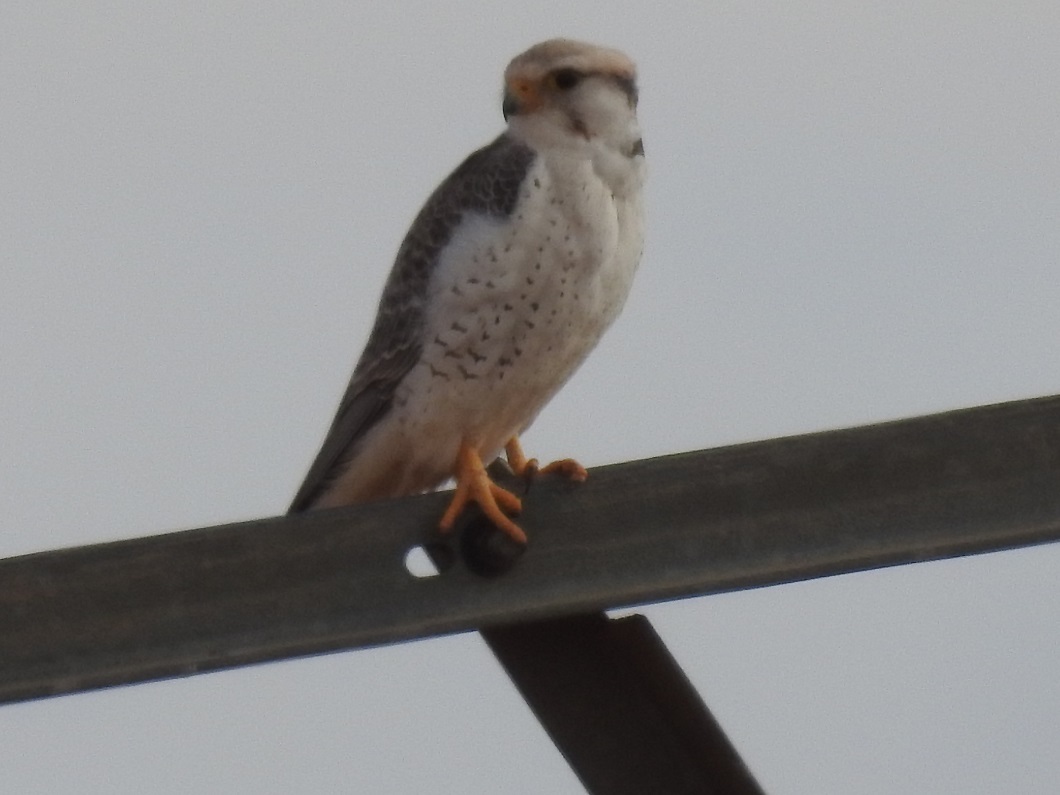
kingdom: Animalia
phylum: Chordata
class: Aves
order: Falconiformes
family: Falconidae
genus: Falco
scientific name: Falco biarmicus
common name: Lanner falcon
